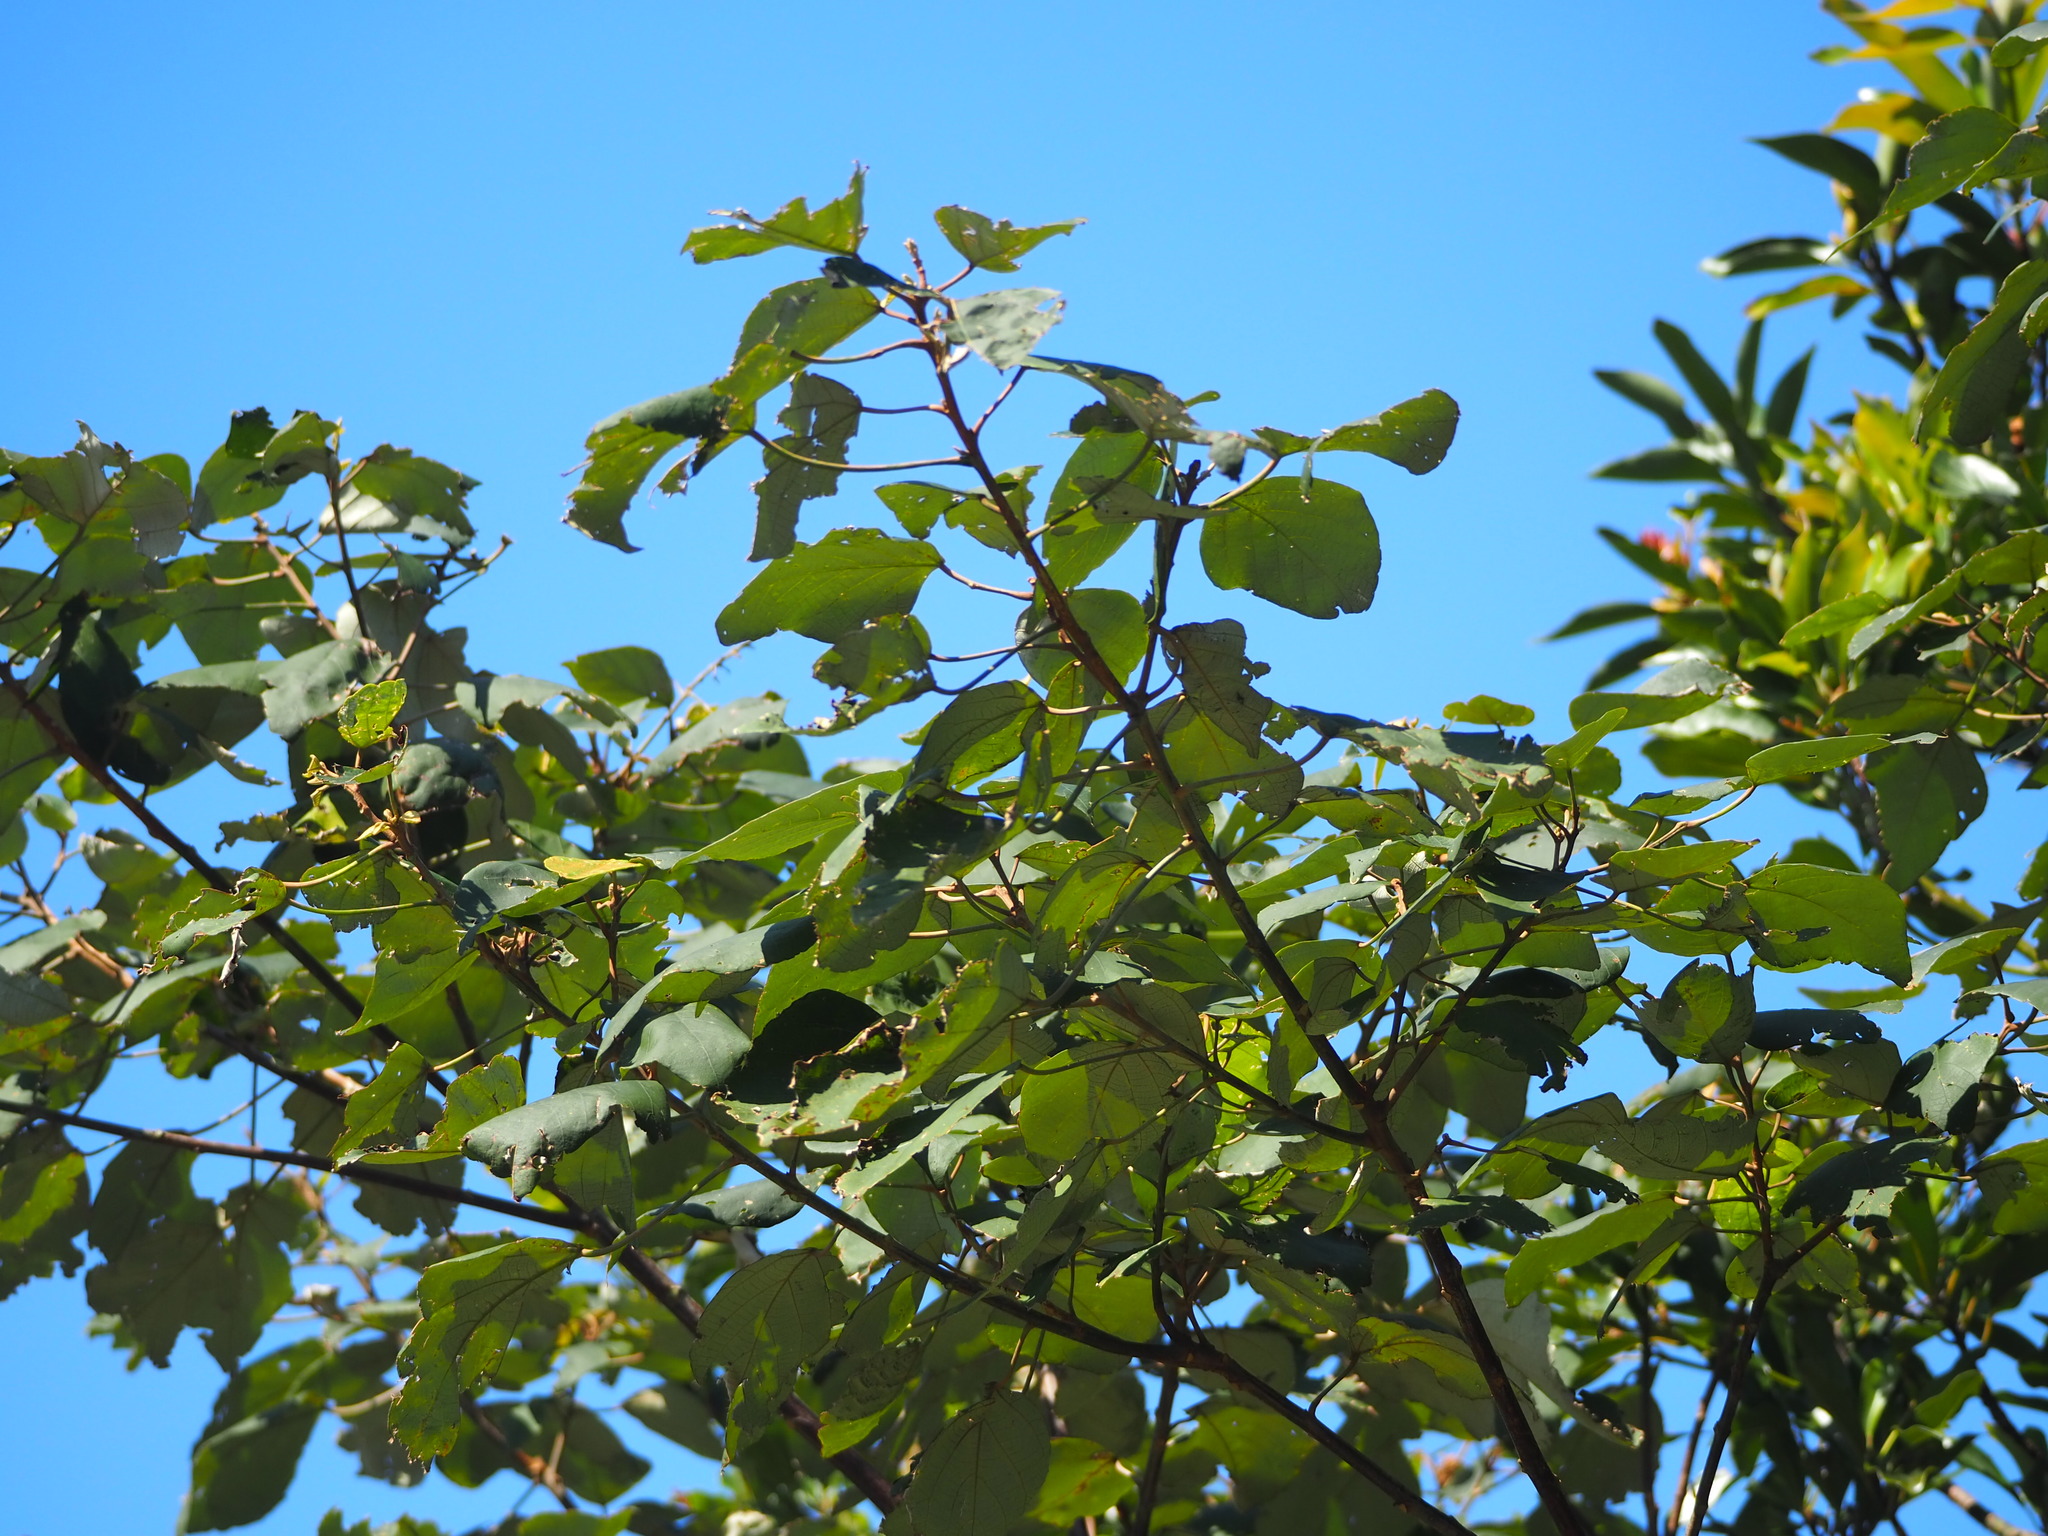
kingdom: Plantae
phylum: Tracheophyta
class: Magnoliopsida
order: Malpighiales
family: Euphorbiaceae
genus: Mallotus
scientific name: Mallotus paniculatus
